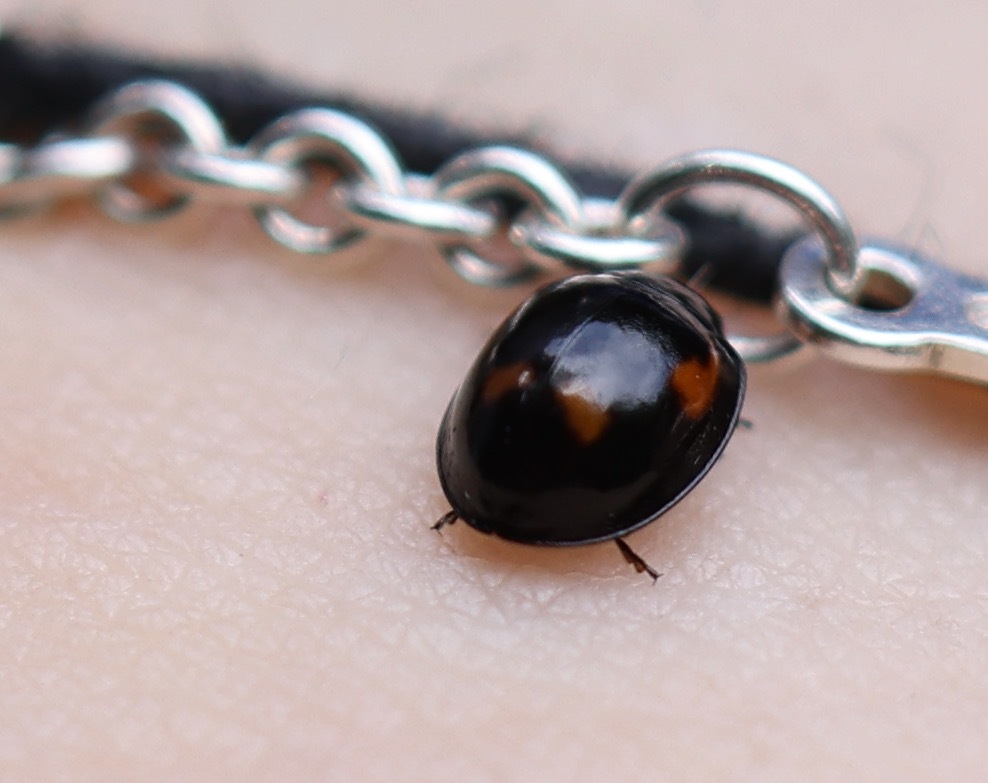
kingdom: Animalia
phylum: Arthropoda
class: Insecta
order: Coleoptera
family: Coccinellidae
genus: Brumus
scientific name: Brumus quadripustulatus
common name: Ladybird beetle
